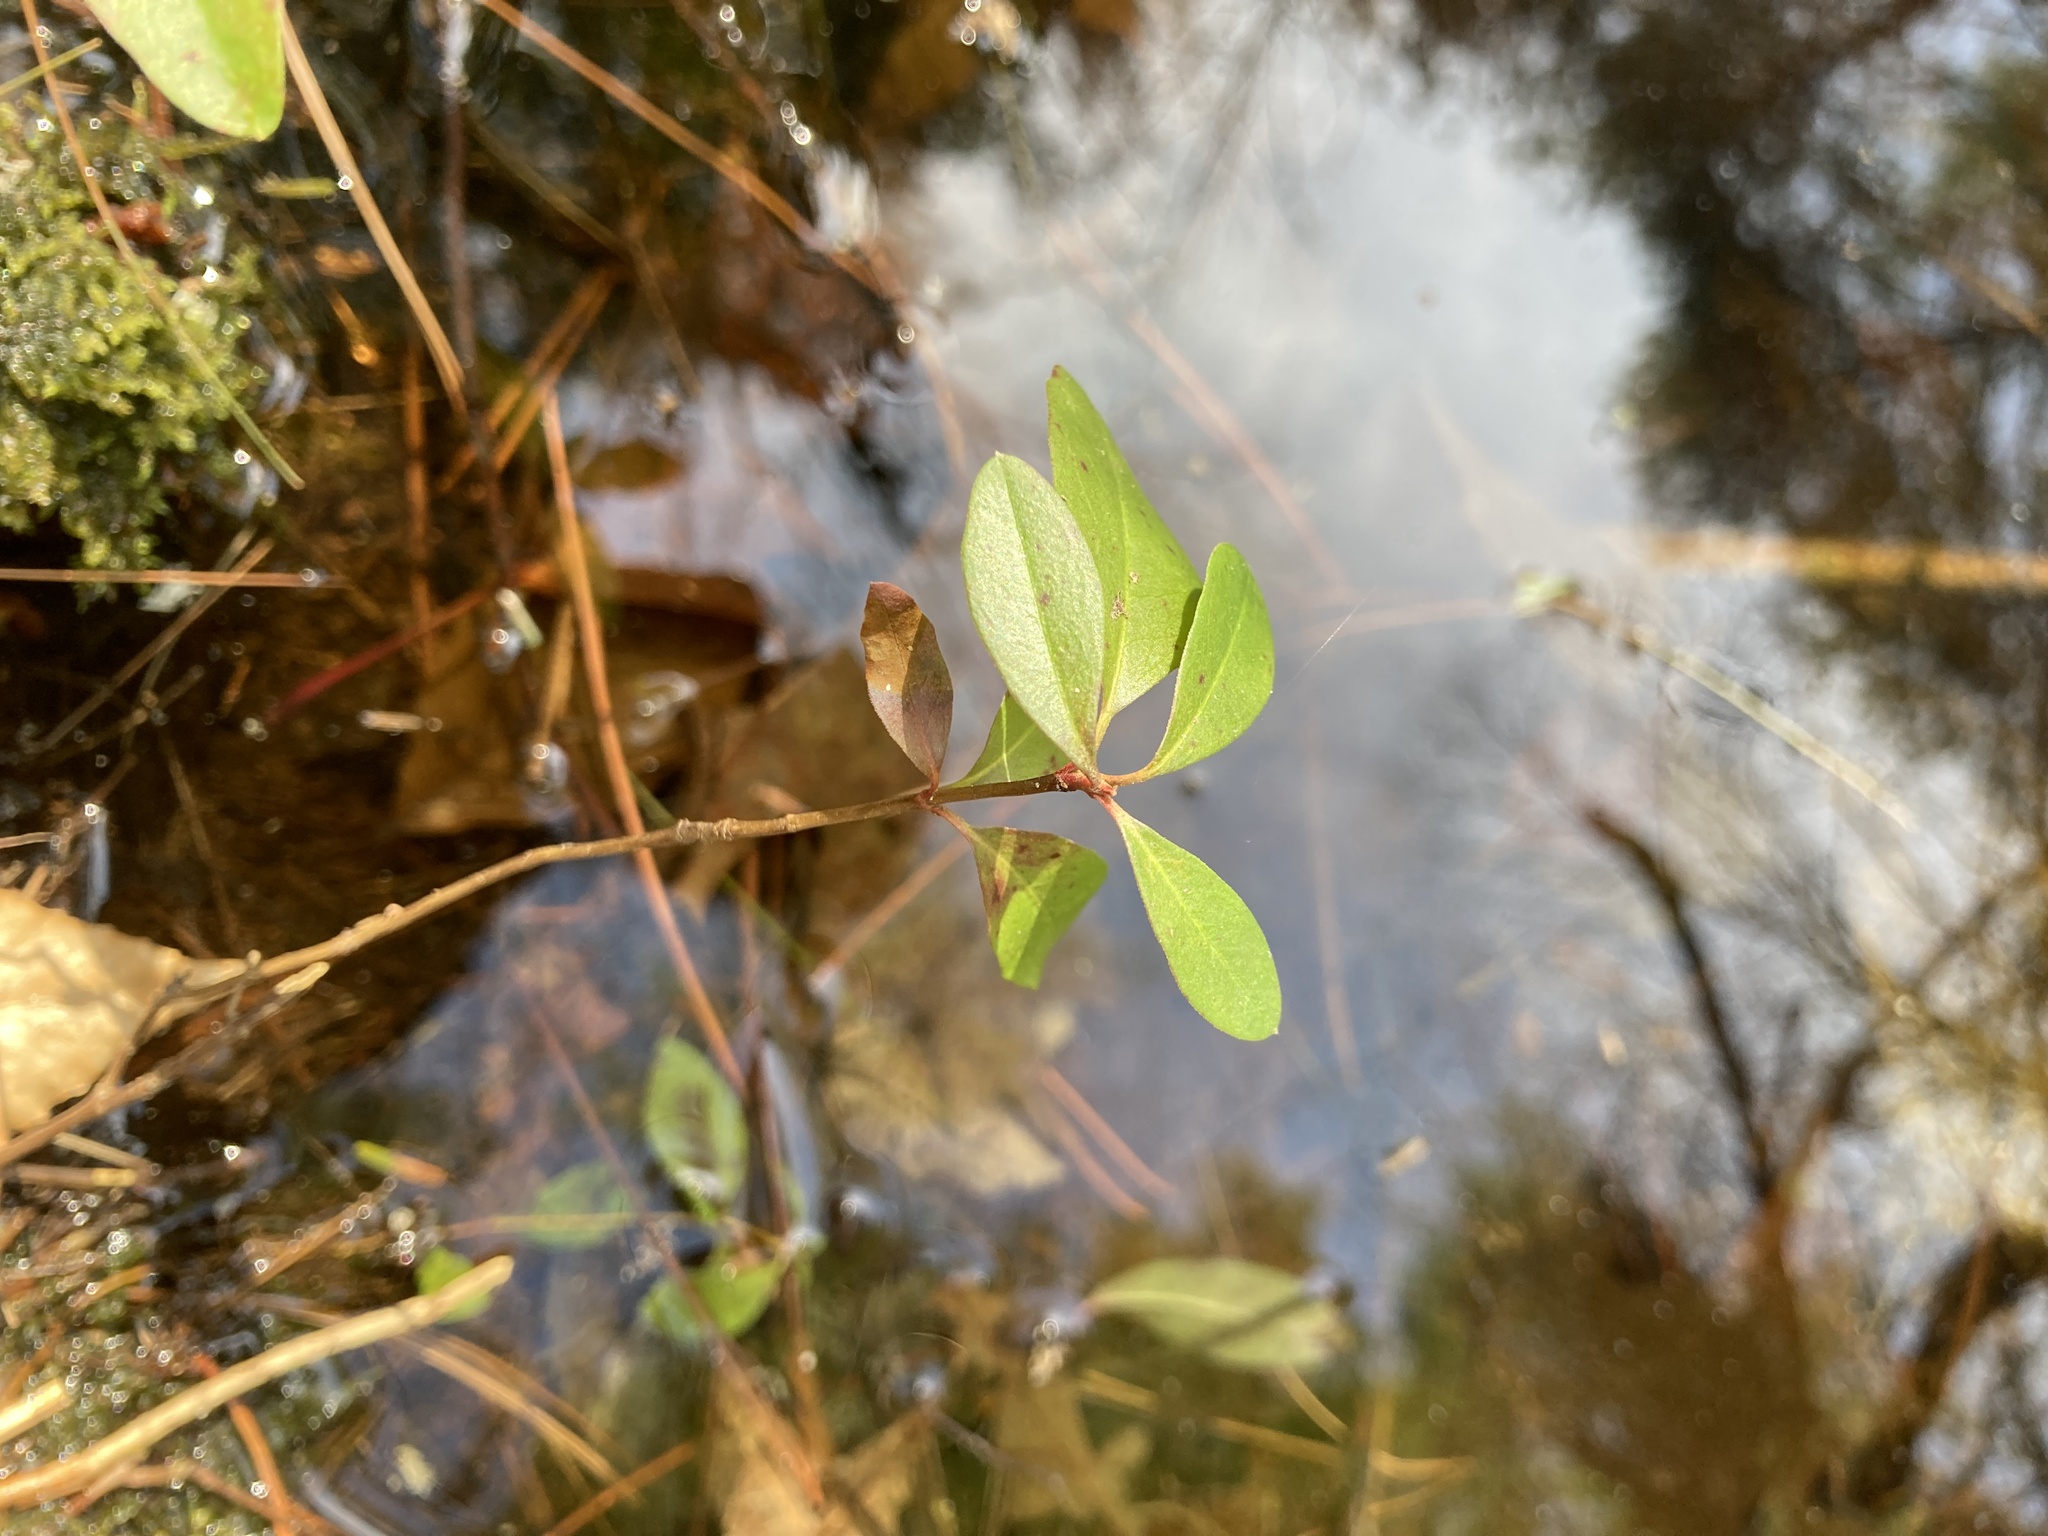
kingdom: Plantae
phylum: Tracheophyta
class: Magnoliopsida
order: Ericales
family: Ericaceae
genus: Gaultheria
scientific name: Gaultheria procumbens
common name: Checkerberry
